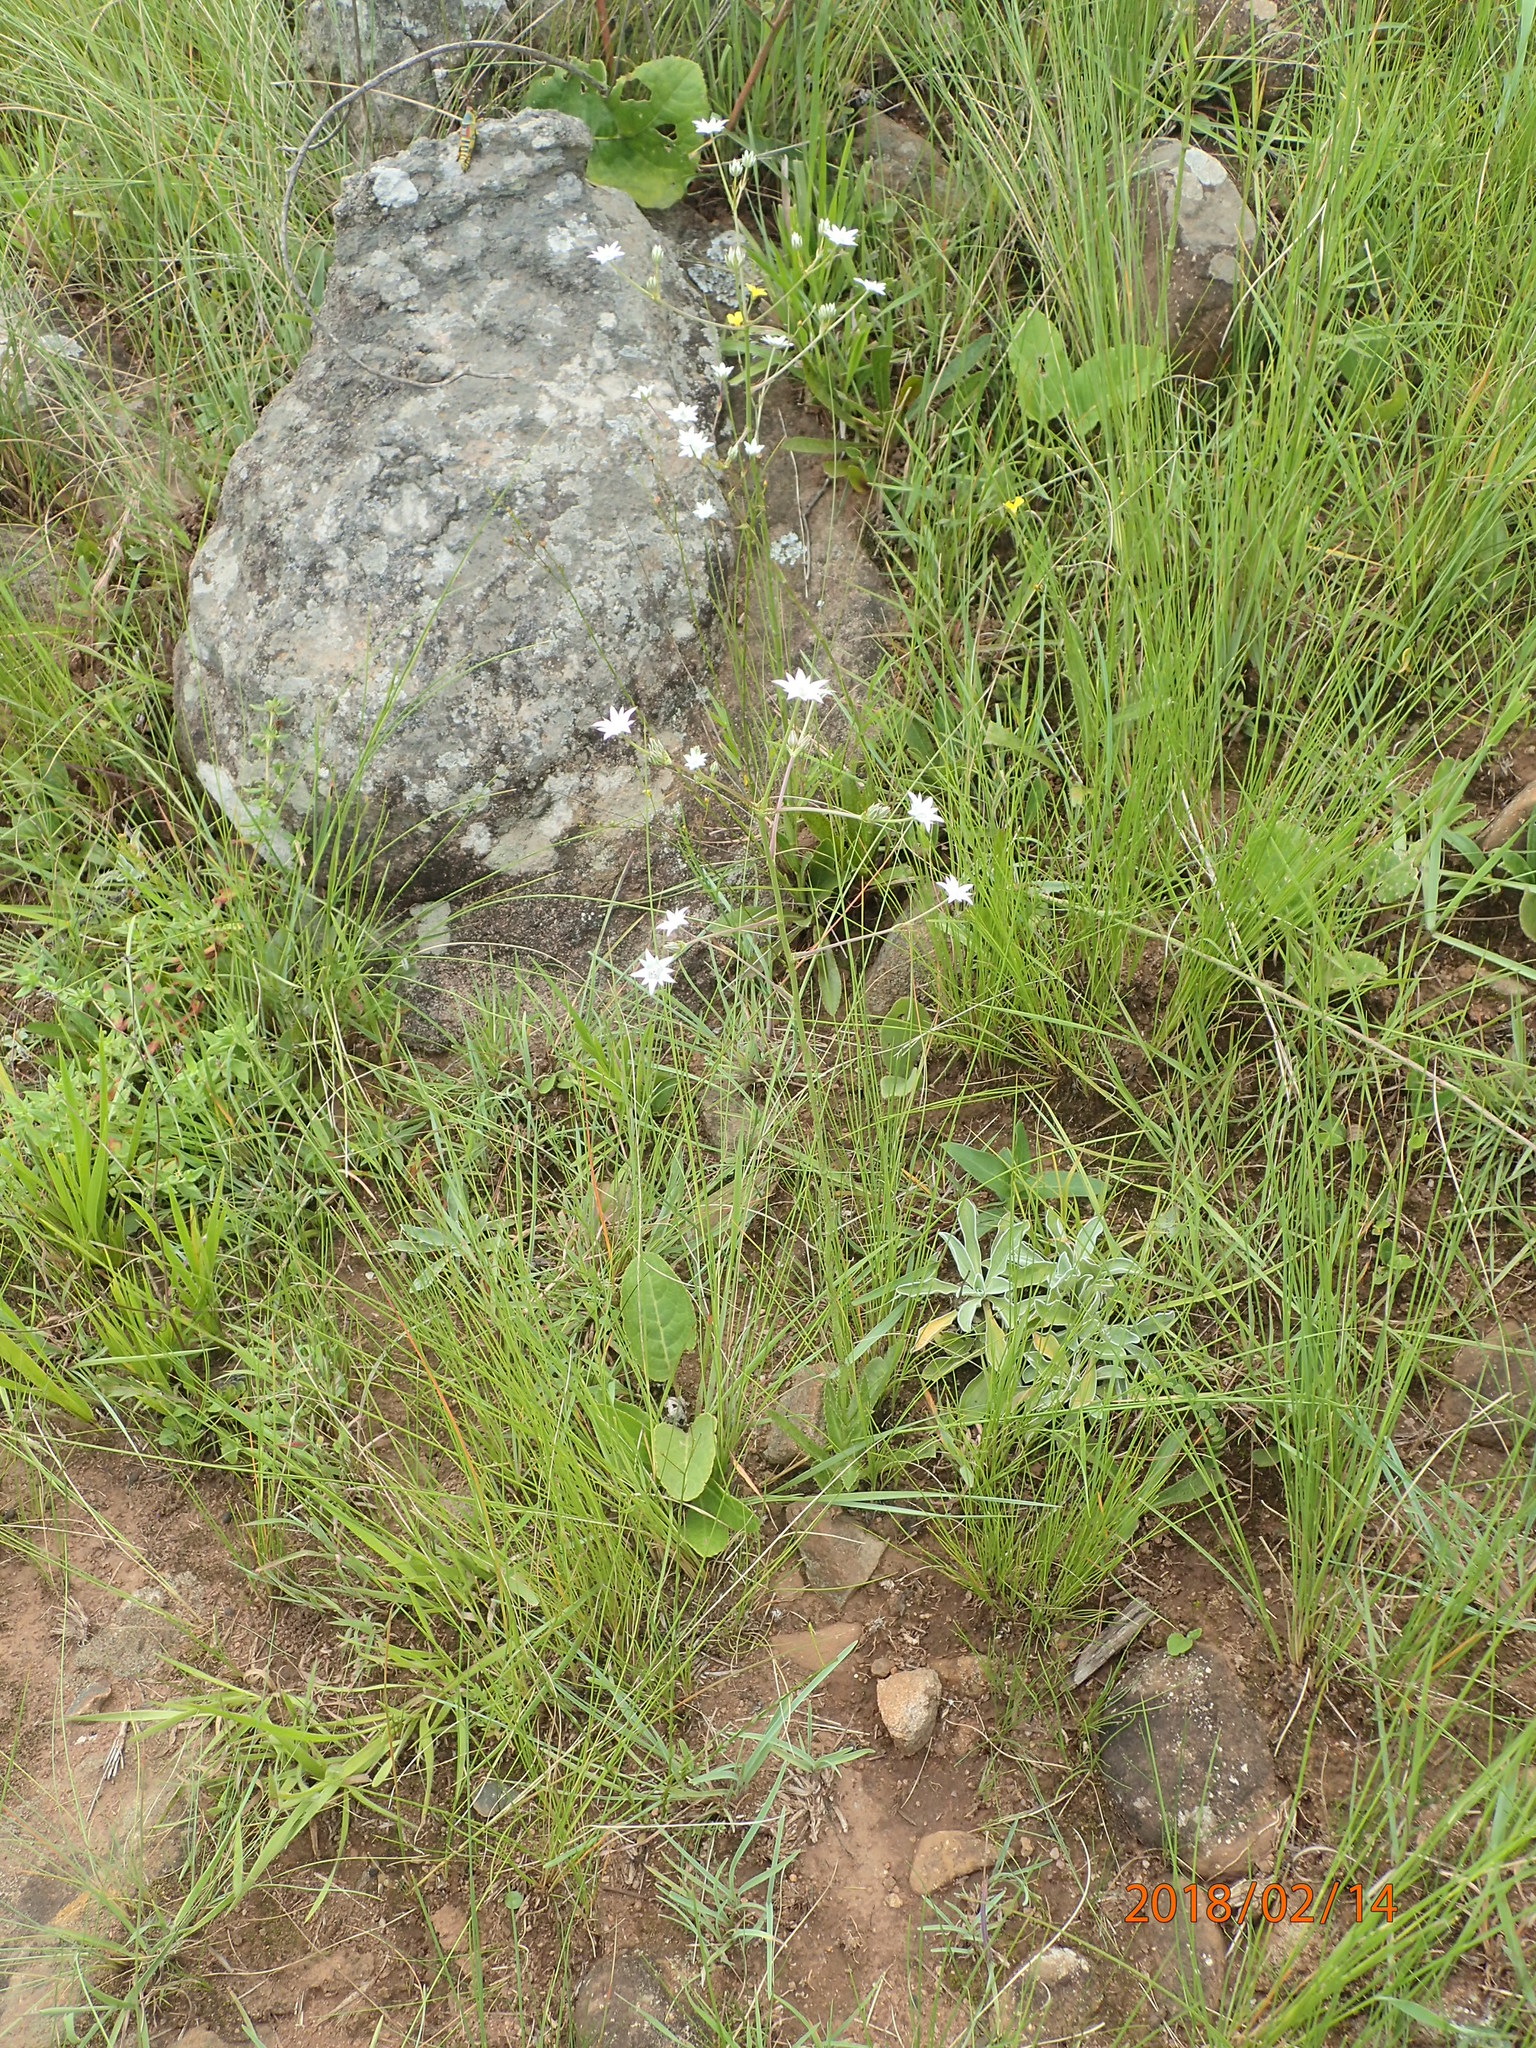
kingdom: Plantae
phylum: Tracheophyta
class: Magnoliopsida
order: Apiales
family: Apiaceae
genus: Alepidea
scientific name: Alepidea peduncularis
